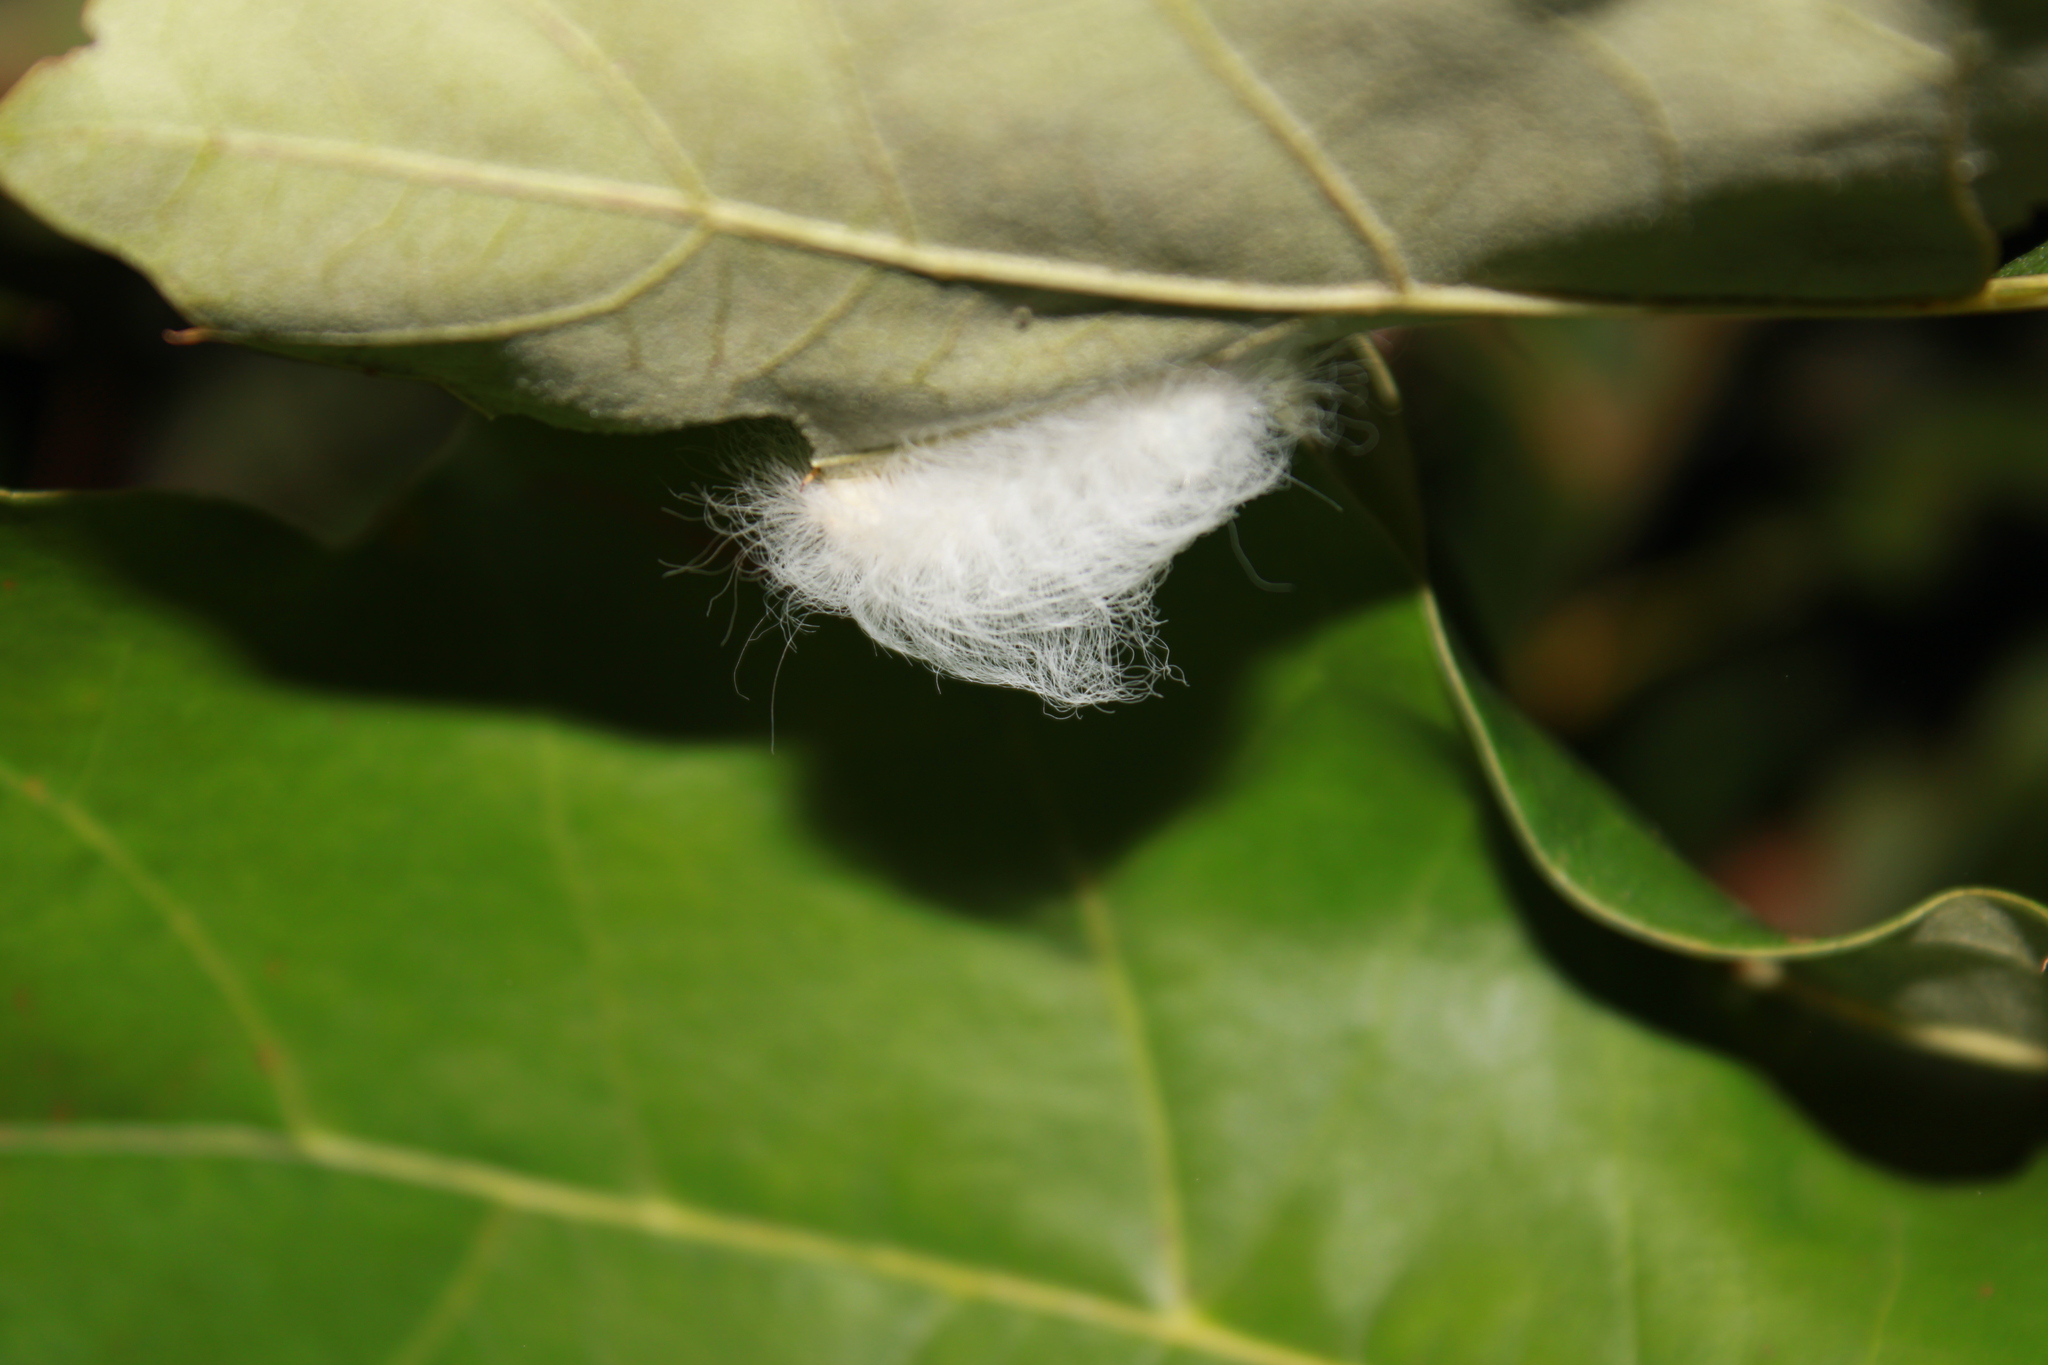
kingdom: Animalia
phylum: Arthropoda
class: Insecta
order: Lepidoptera
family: Megalopygidae
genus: Megalopyge
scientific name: Megalopyge crispata
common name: Black-waved flannel moth
